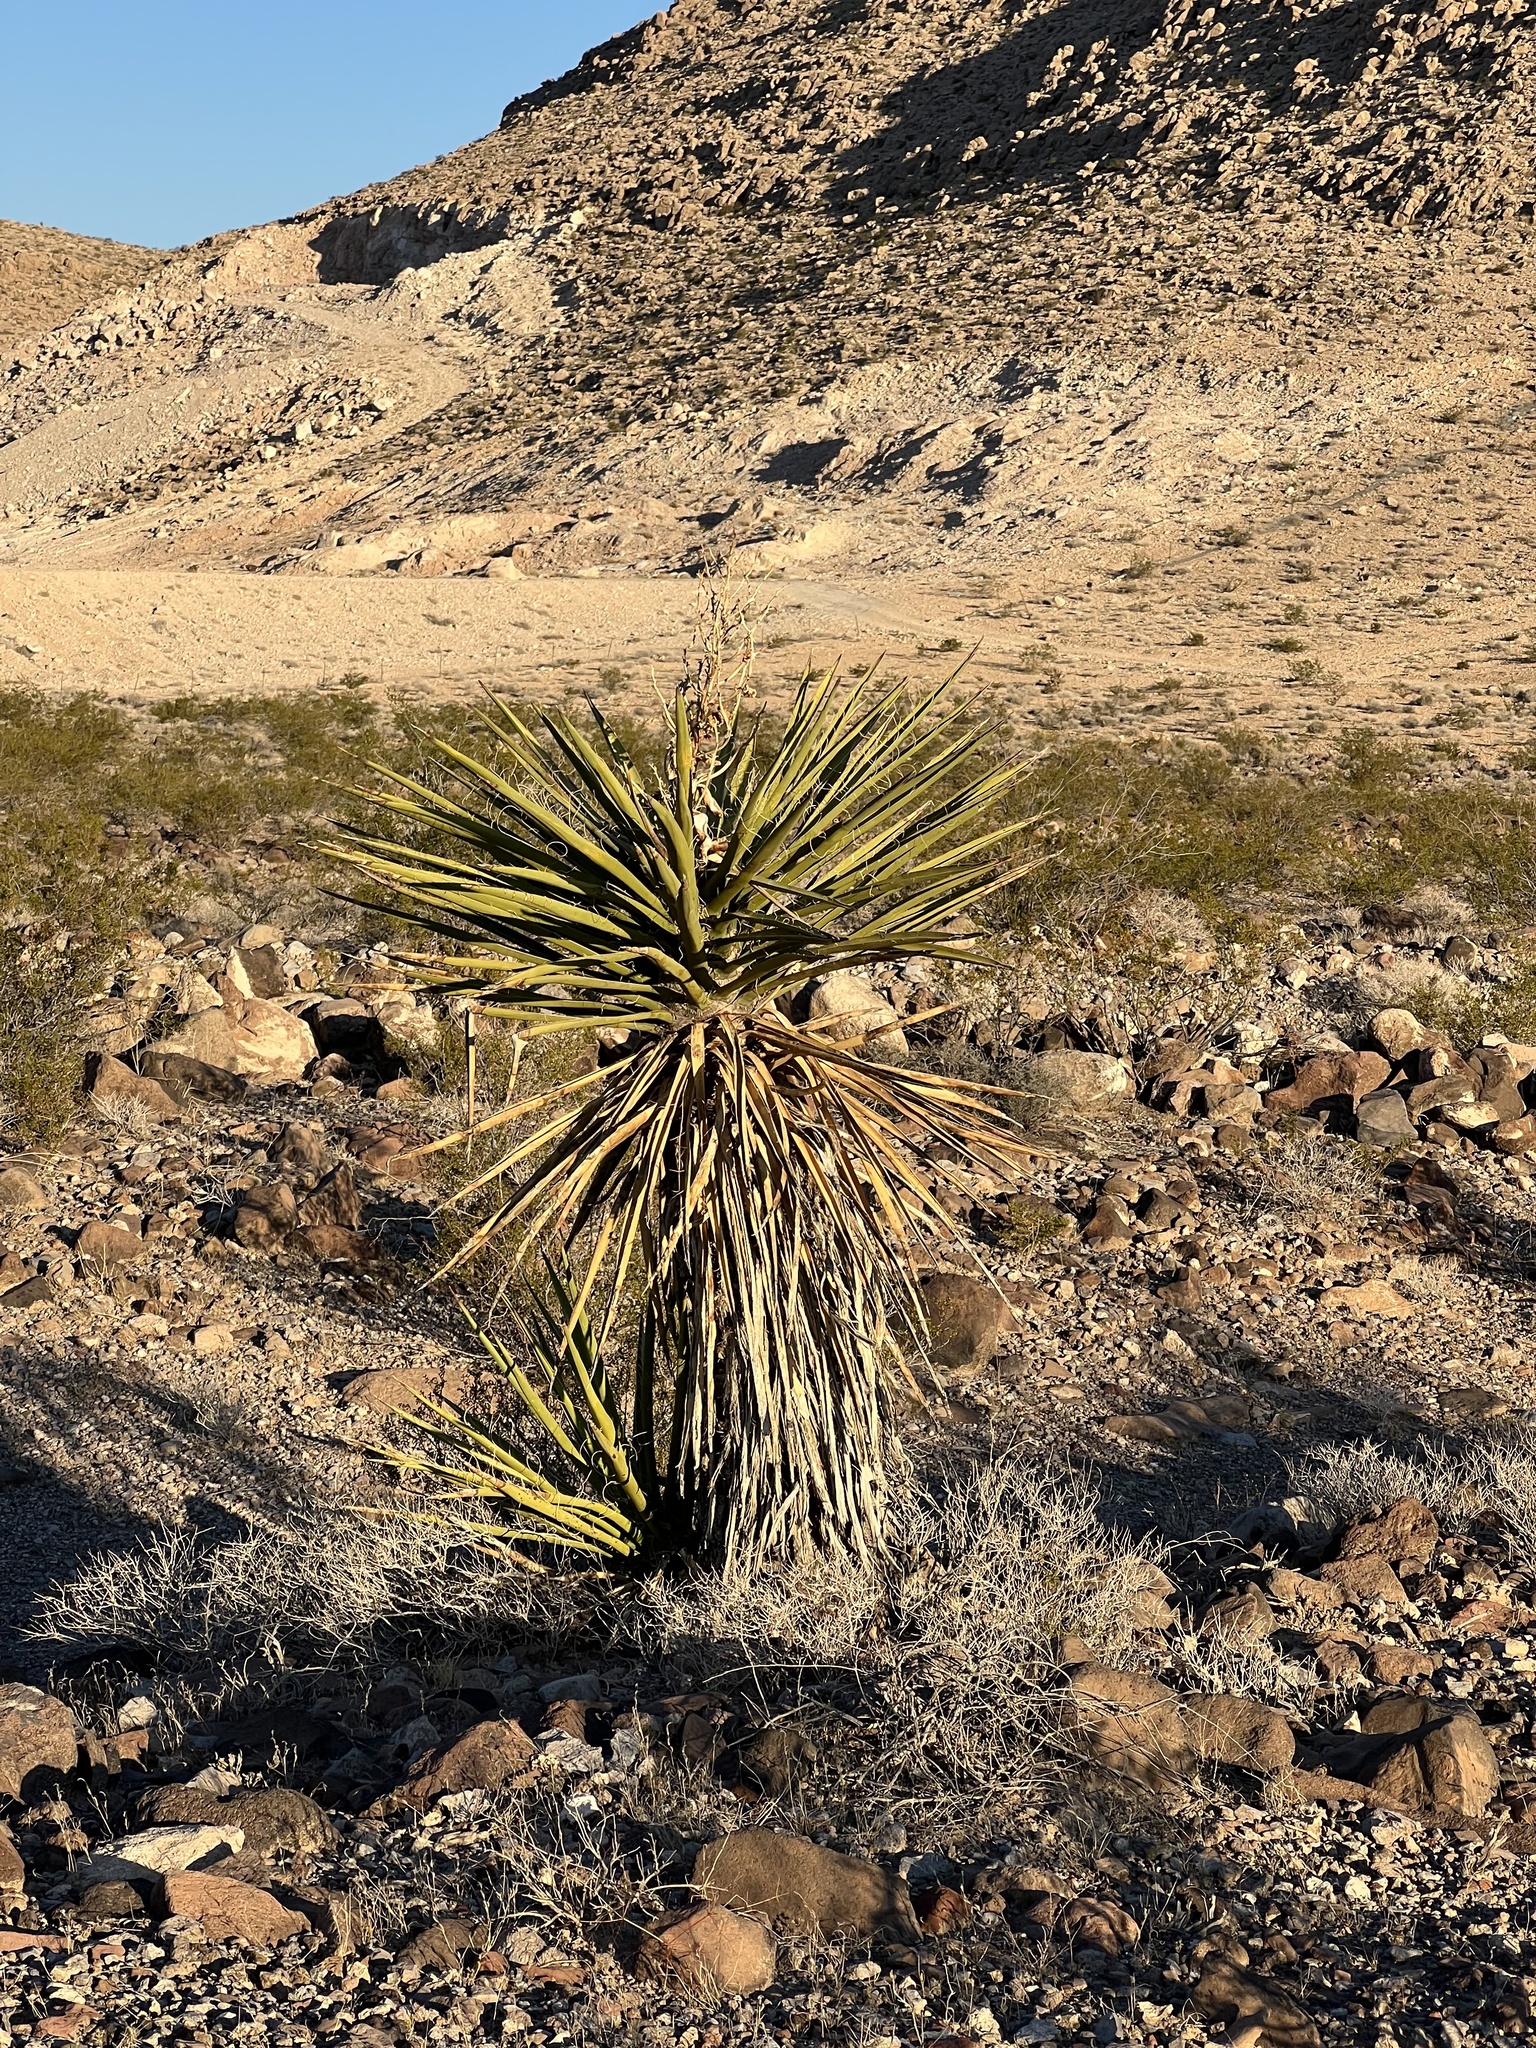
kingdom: Plantae
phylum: Tracheophyta
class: Liliopsida
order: Asparagales
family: Asparagaceae
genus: Yucca
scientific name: Yucca schidigera
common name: Mojave yucca
